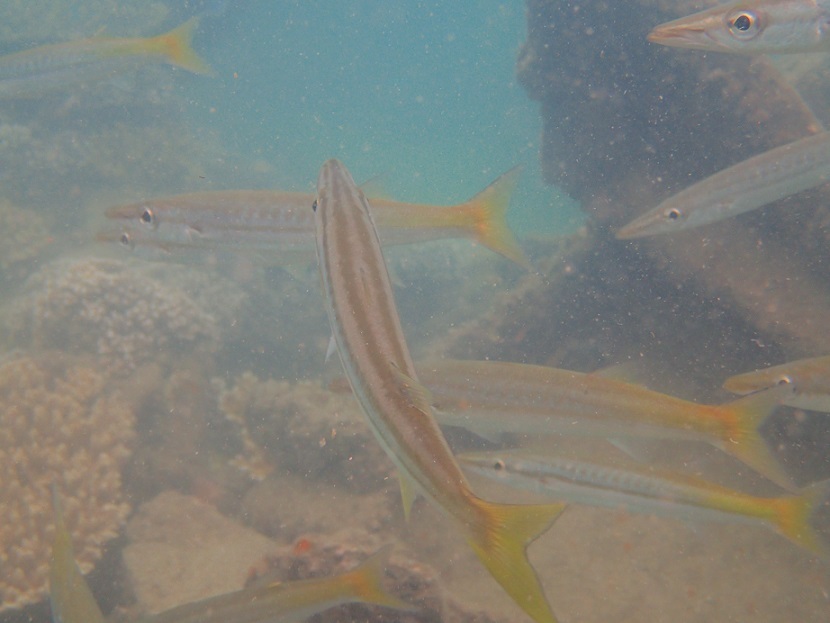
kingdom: Animalia
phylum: Chordata
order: Perciformes
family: Sphyraenidae
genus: Sphyraena
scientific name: Sphyraena obtusata
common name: Obtuse barracuda
